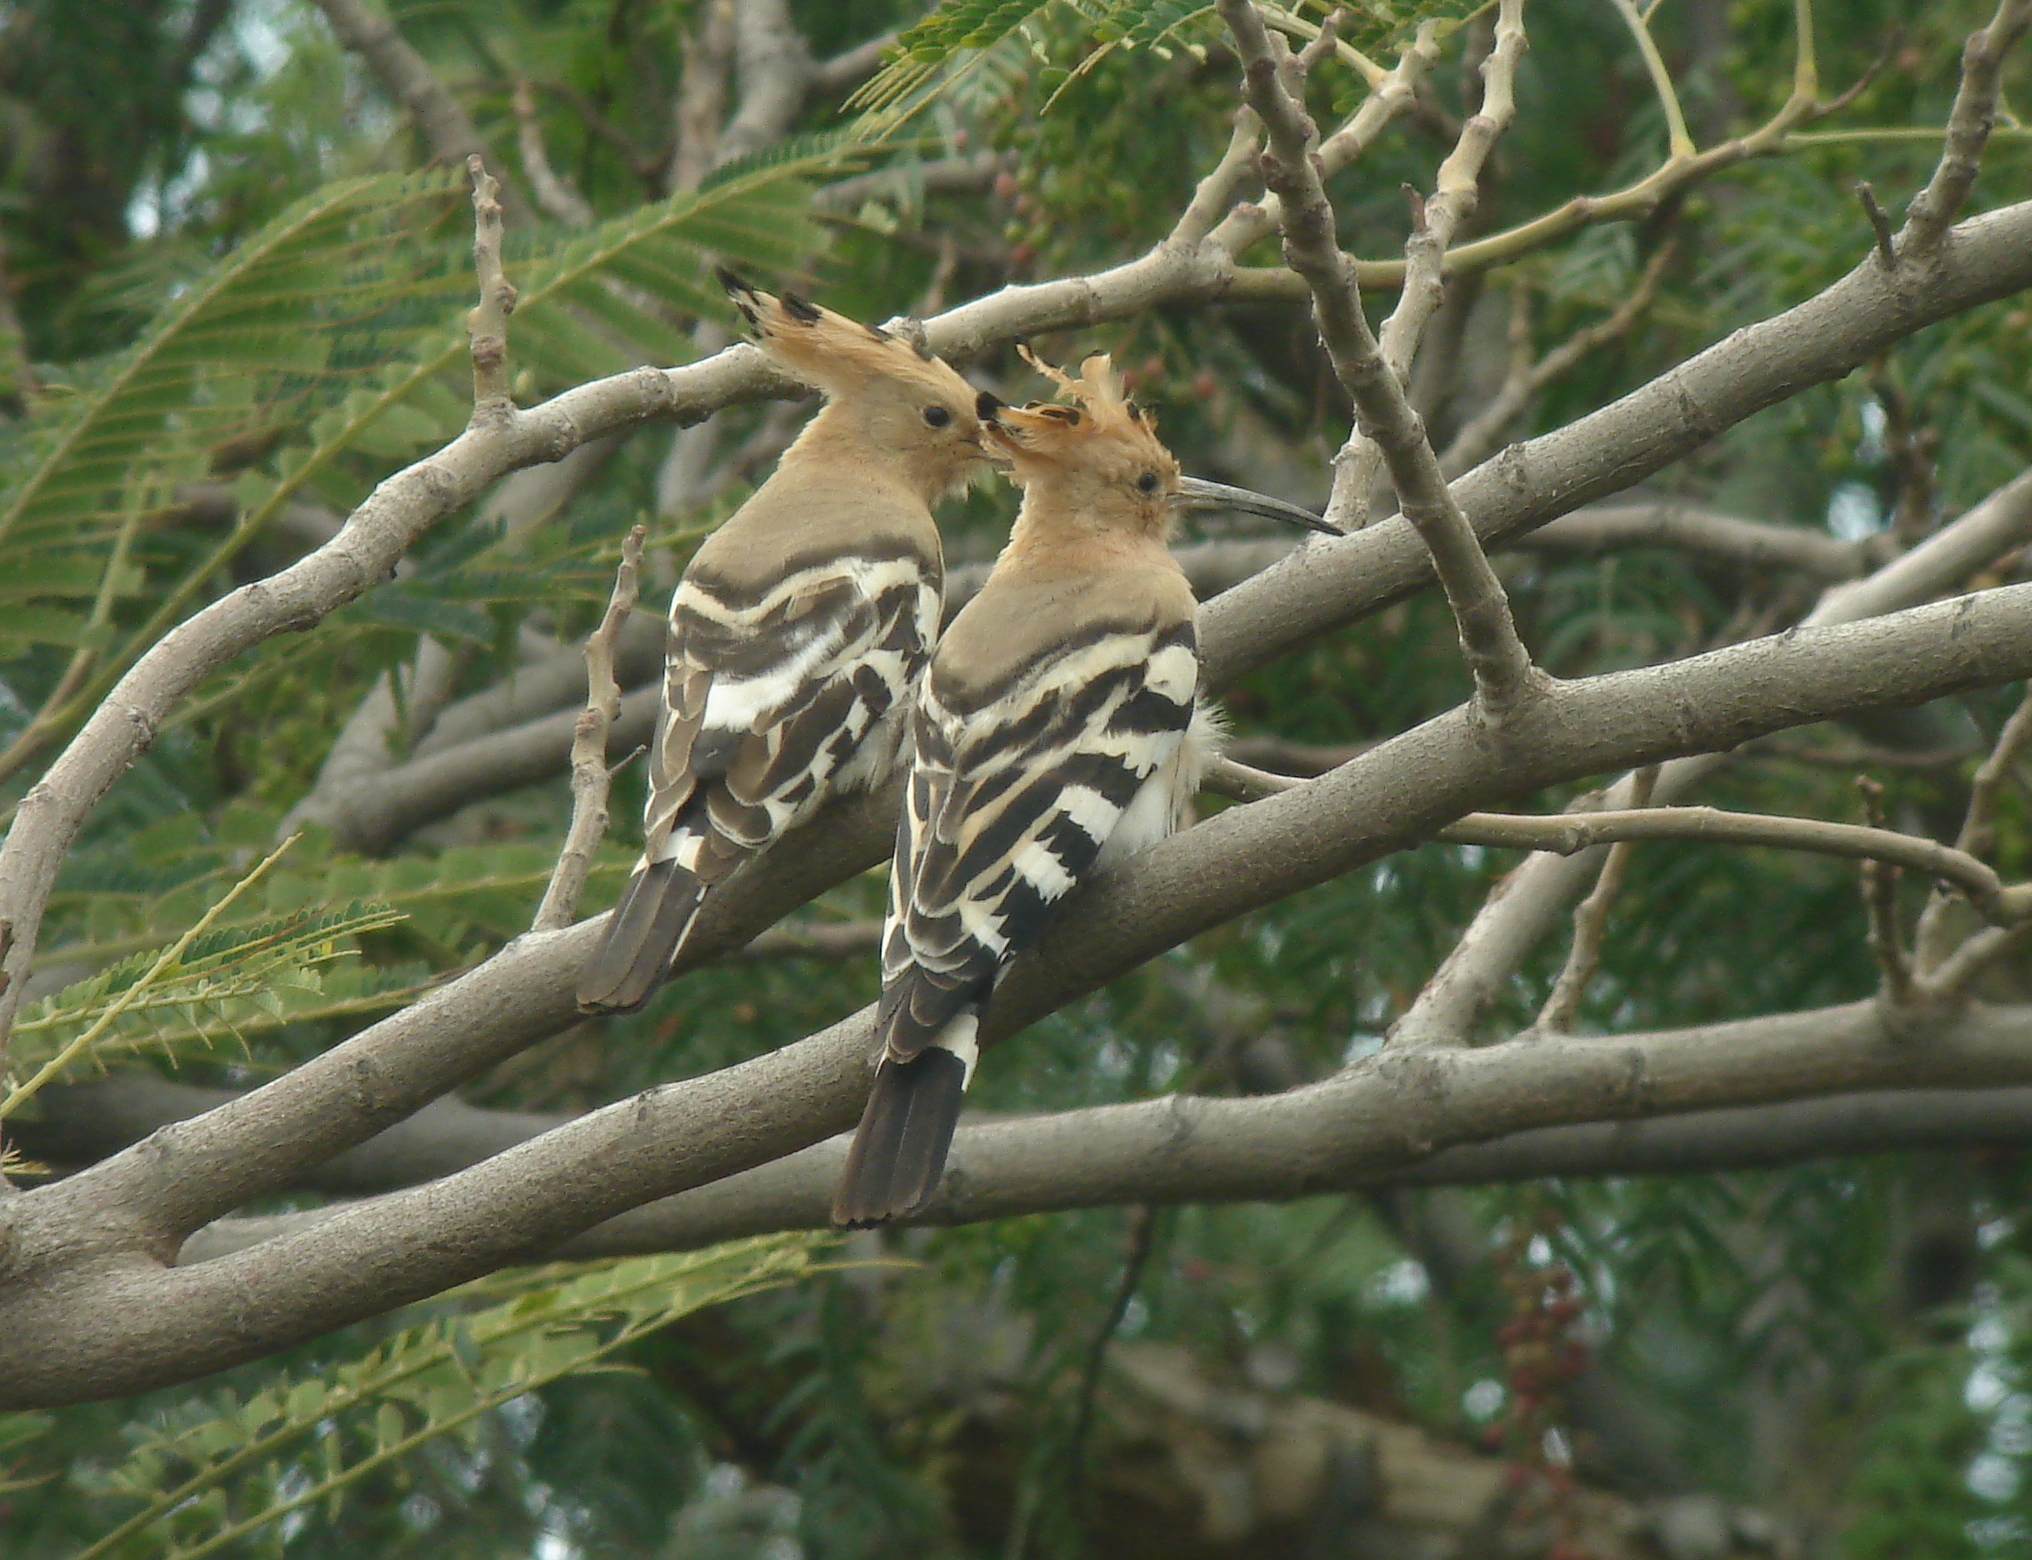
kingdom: Animalia
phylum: Chordata
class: Aves
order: Bucerotiformes
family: Upupidae
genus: Upupa
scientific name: Upupa epops
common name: Eurasian hoopoe
